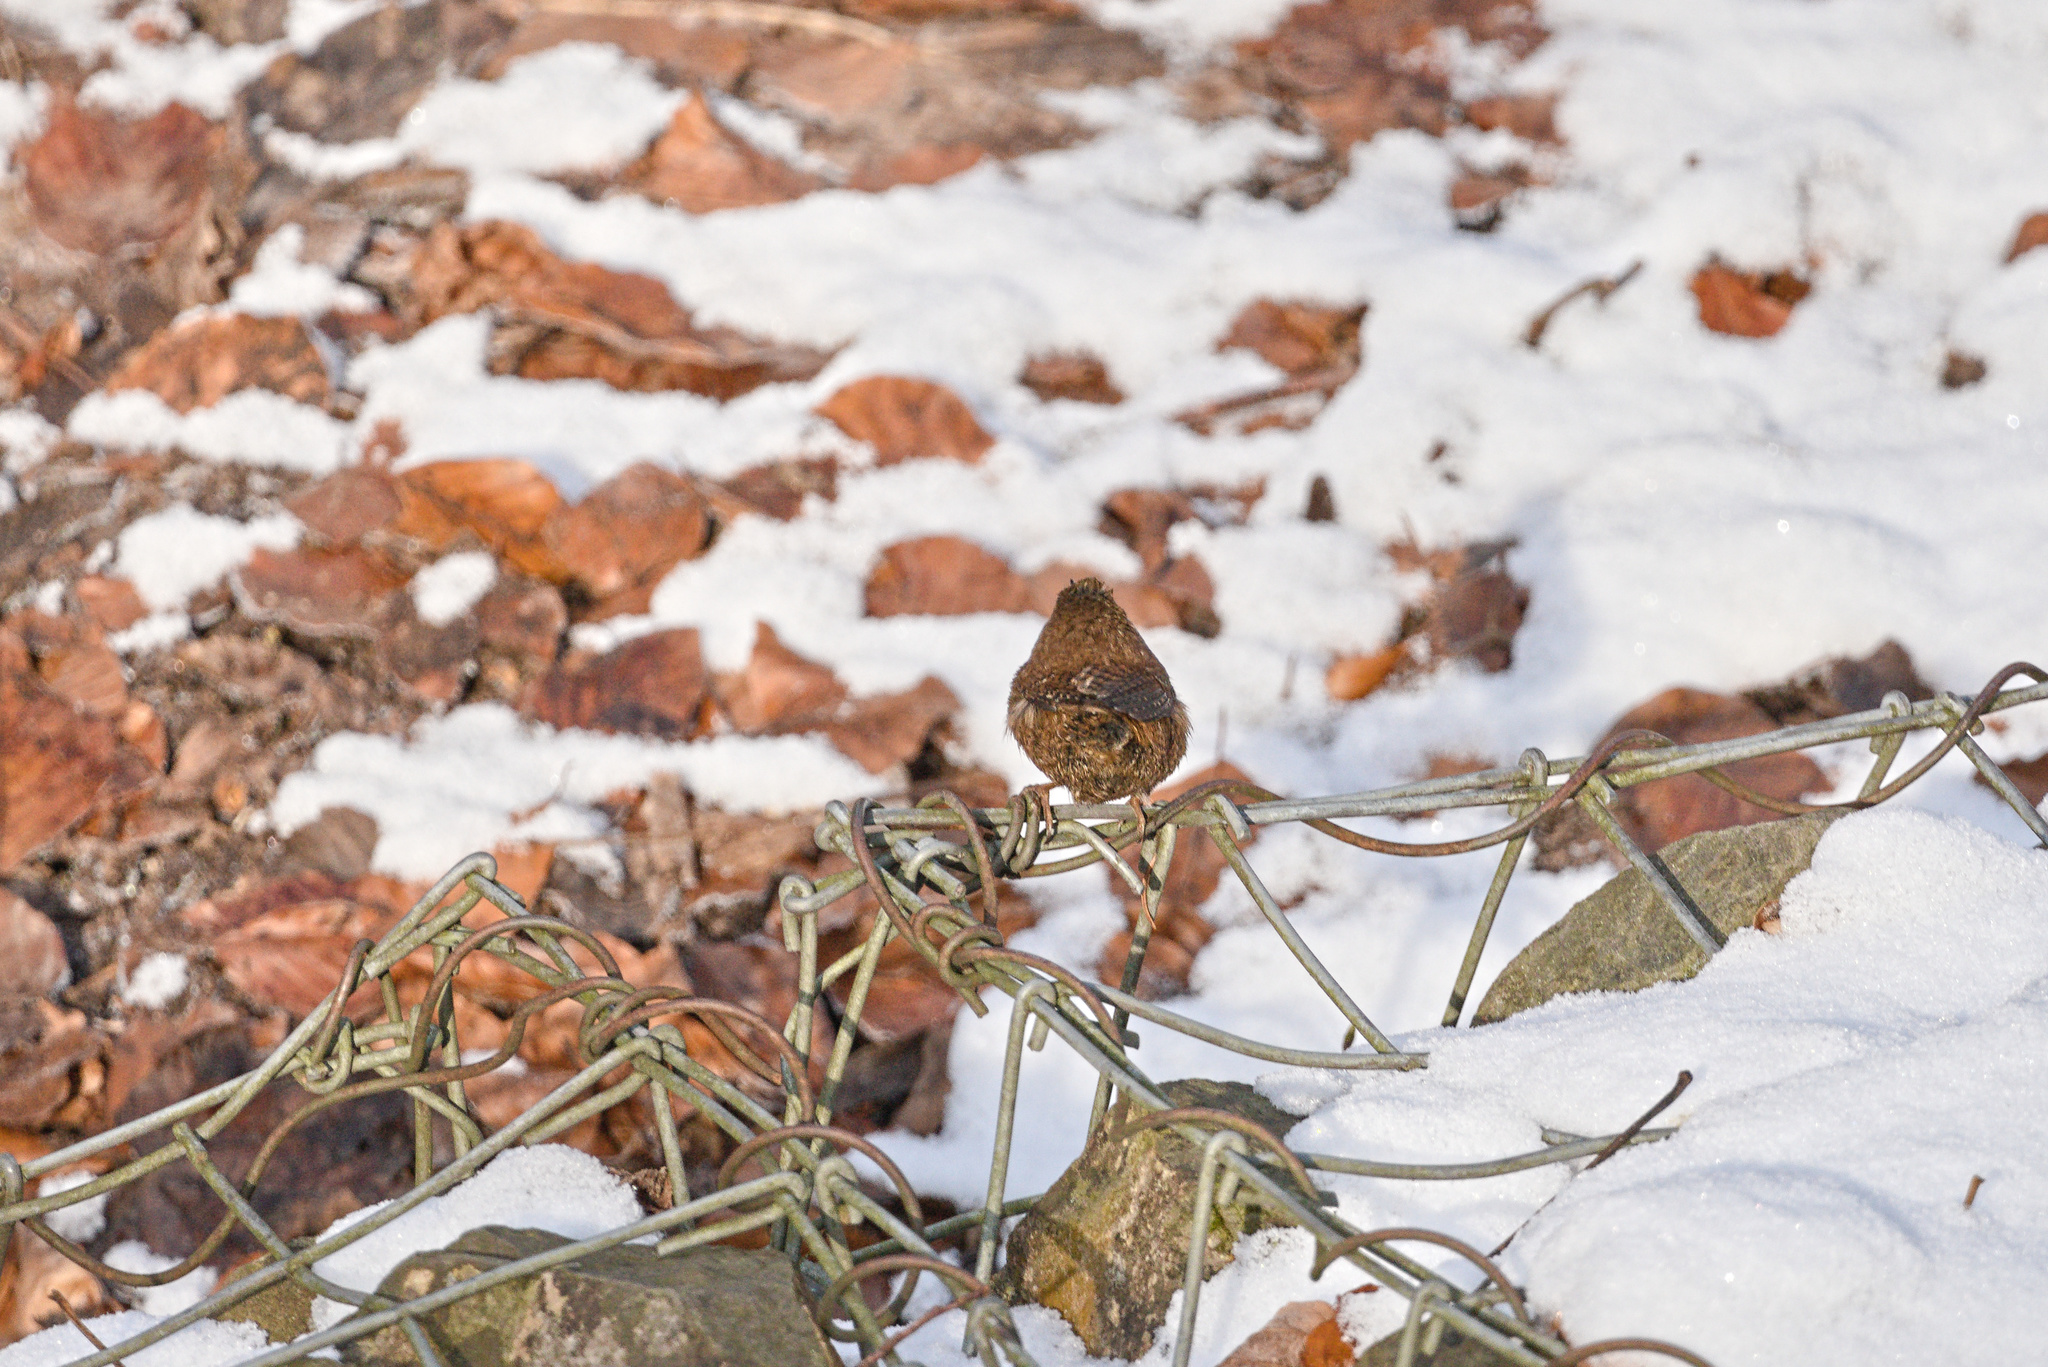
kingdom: Animalia
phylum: Chordata
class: Aves
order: Passeriformes
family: Troglodytidae
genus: Troglodytes
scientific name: Troglodytes troglodytes
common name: Eurasian wren
